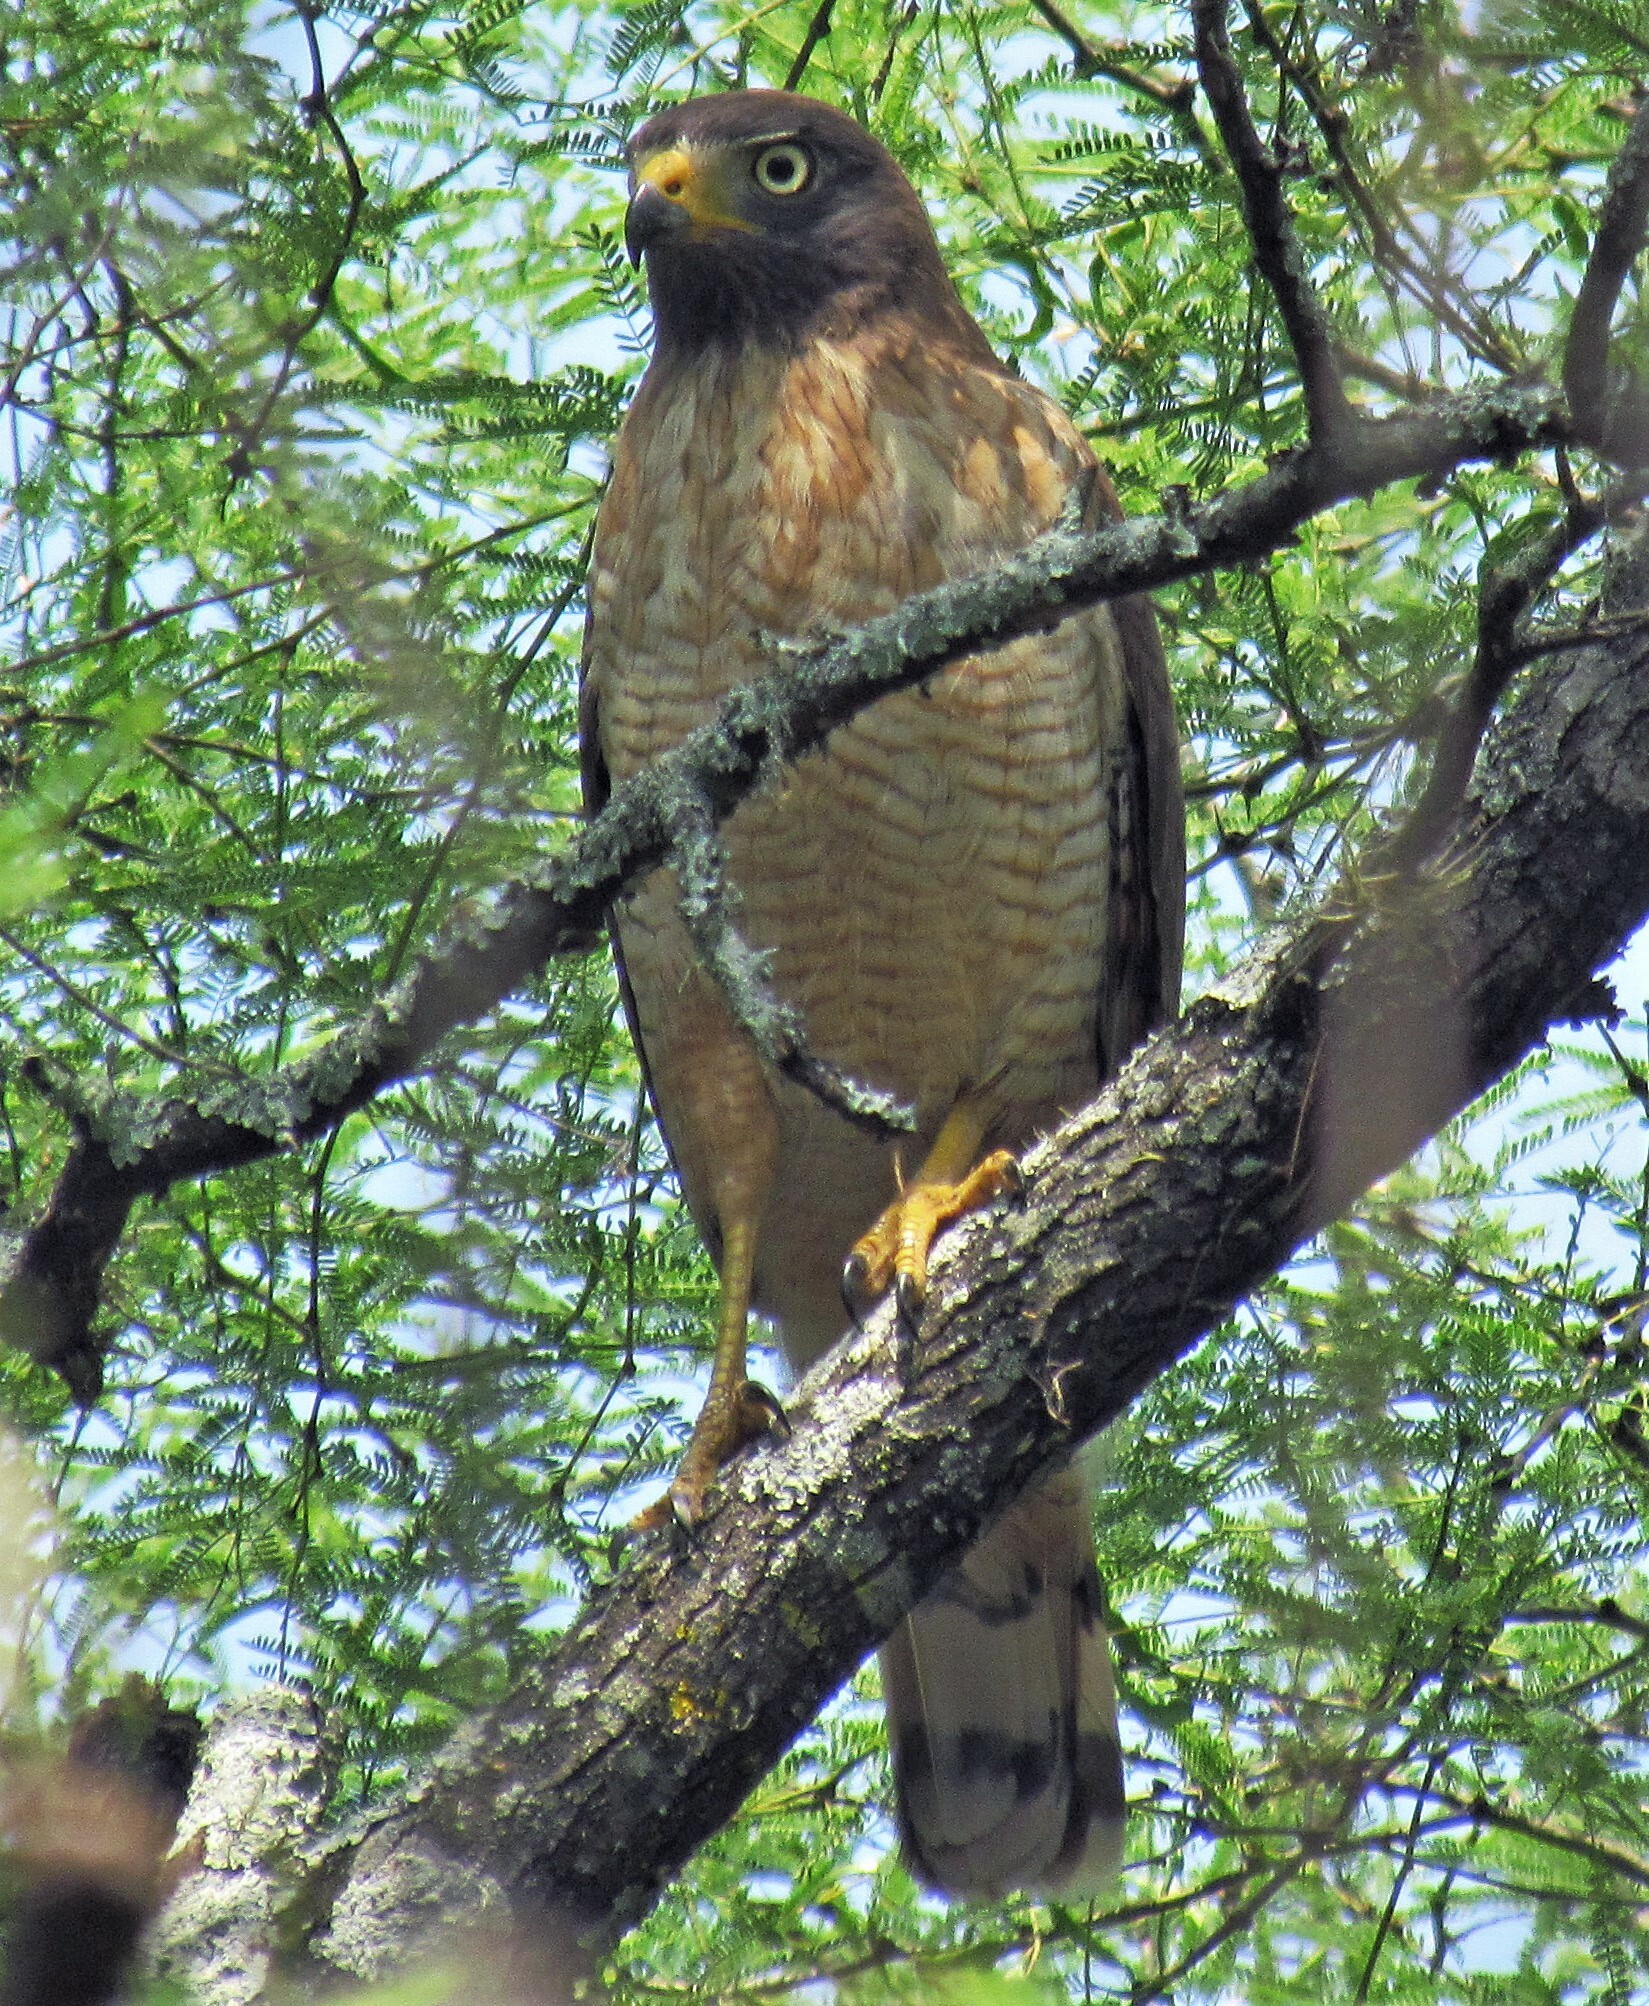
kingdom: Animalia
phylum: Chordata
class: Aves
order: Accipitriformes
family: Accipitridae
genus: Rupornis
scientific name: Rupornis magnirostris
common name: Roadside hawk
